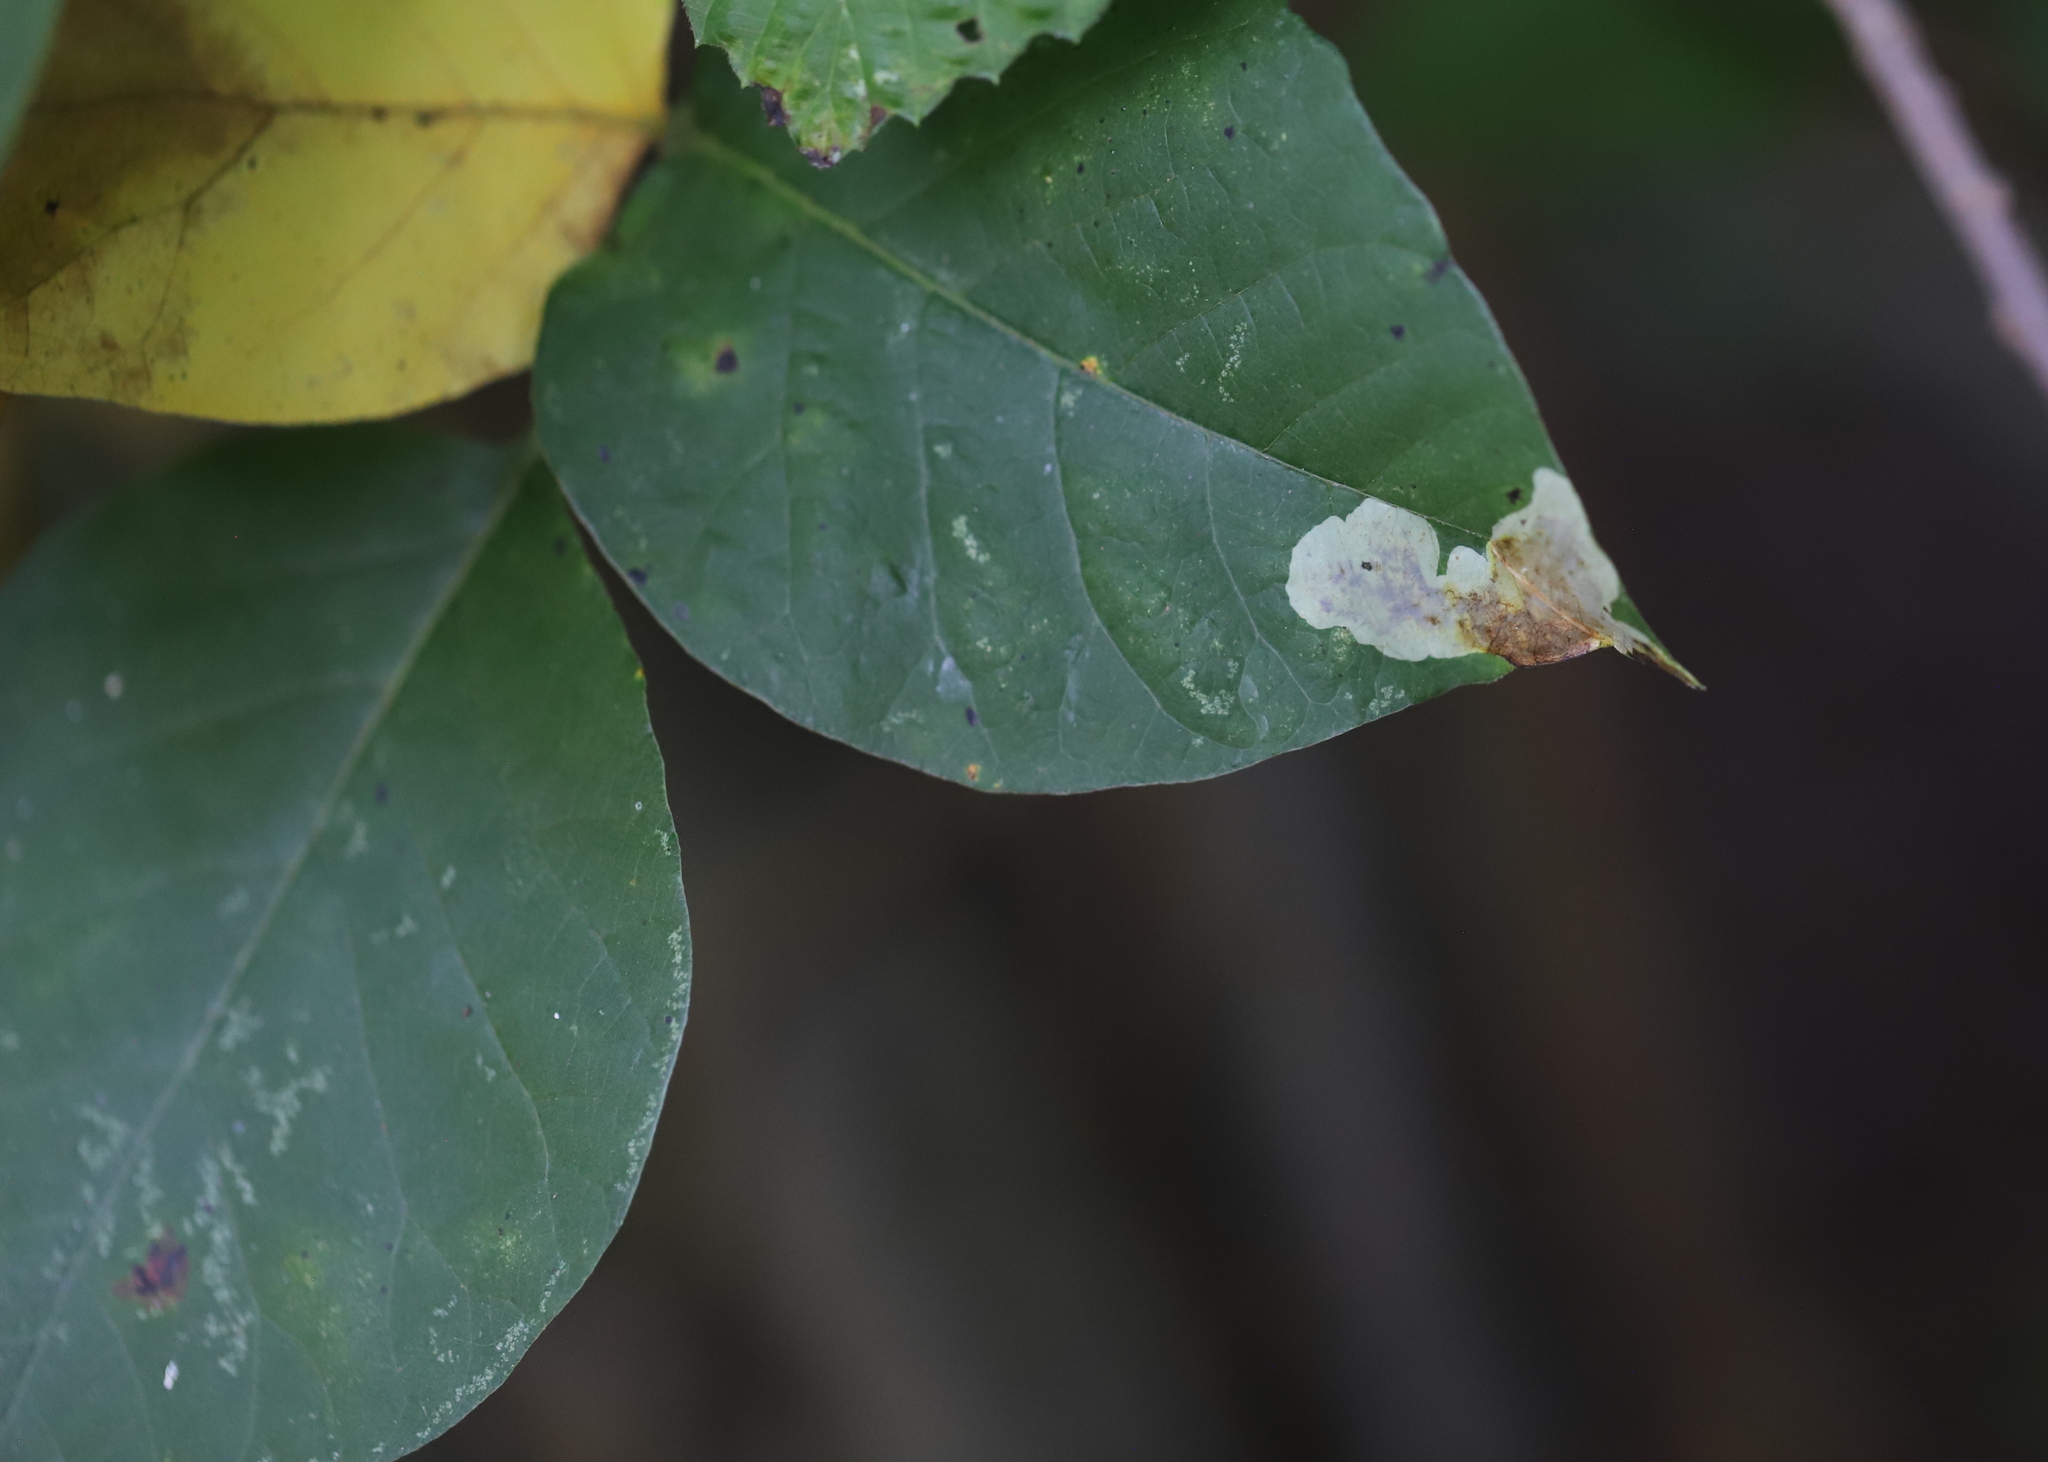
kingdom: Animalia
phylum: Arthropoda
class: Insecta
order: Lepidoptera
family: Gracillariidae
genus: Cameraria
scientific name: Cameraria guttifinitella
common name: Poison ivy leaf-miner moth
